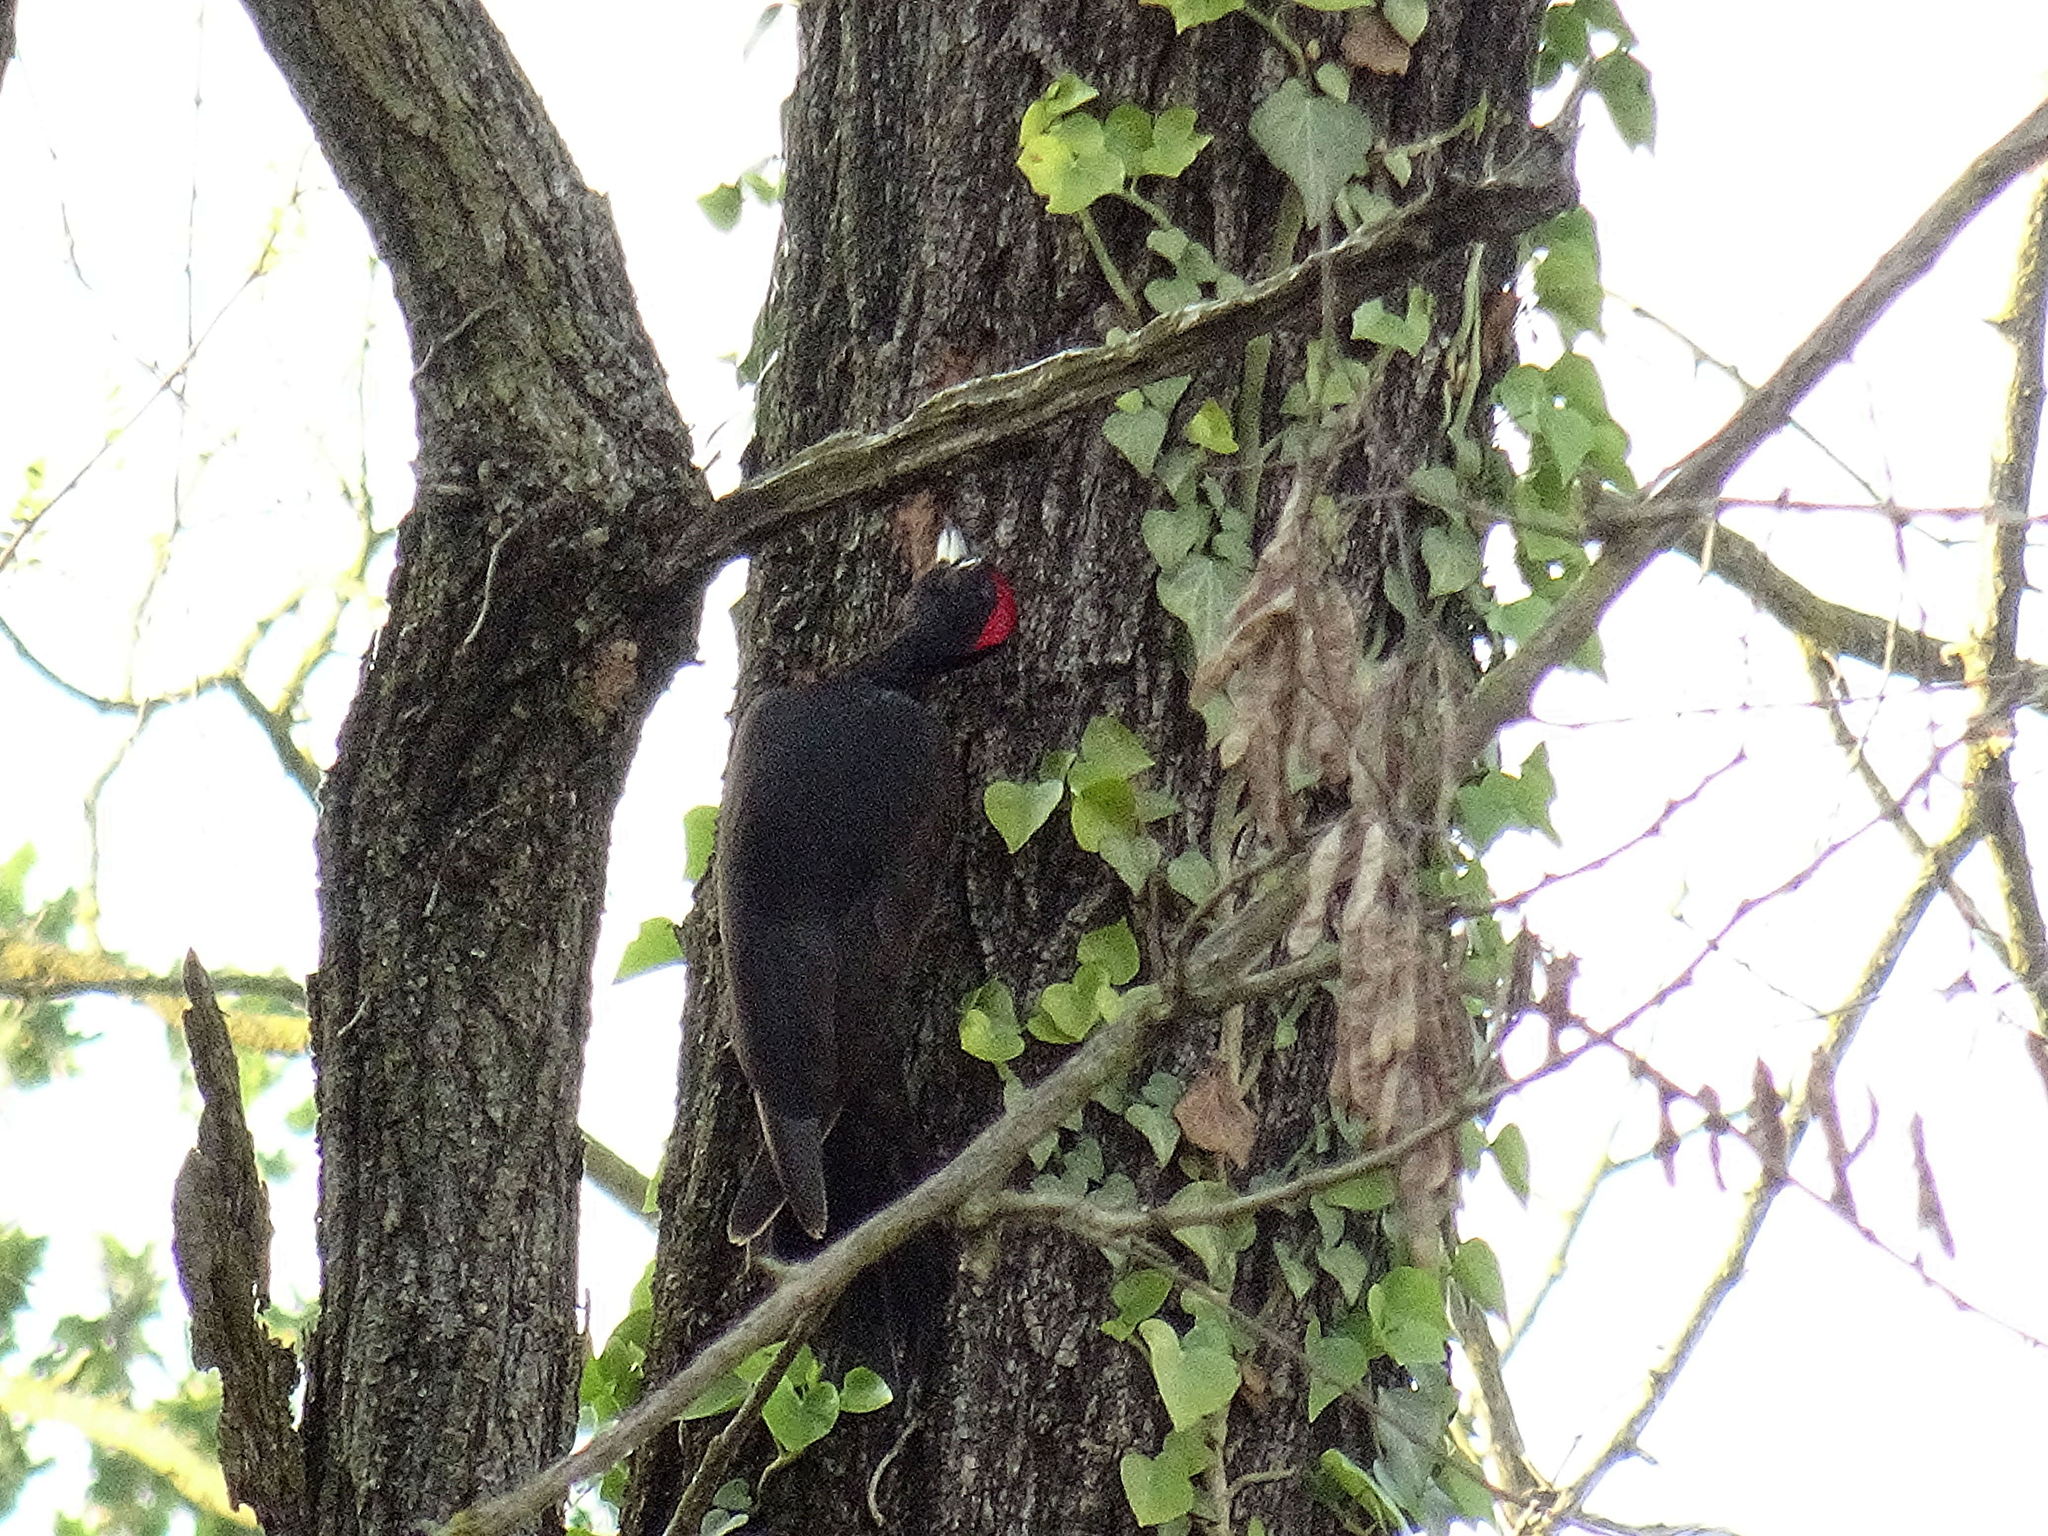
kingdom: Animalia
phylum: Chordata
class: Aves
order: Piciformes
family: Picidae
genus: Dryocopus
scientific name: Dryocopus martius
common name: Black woodpecker
